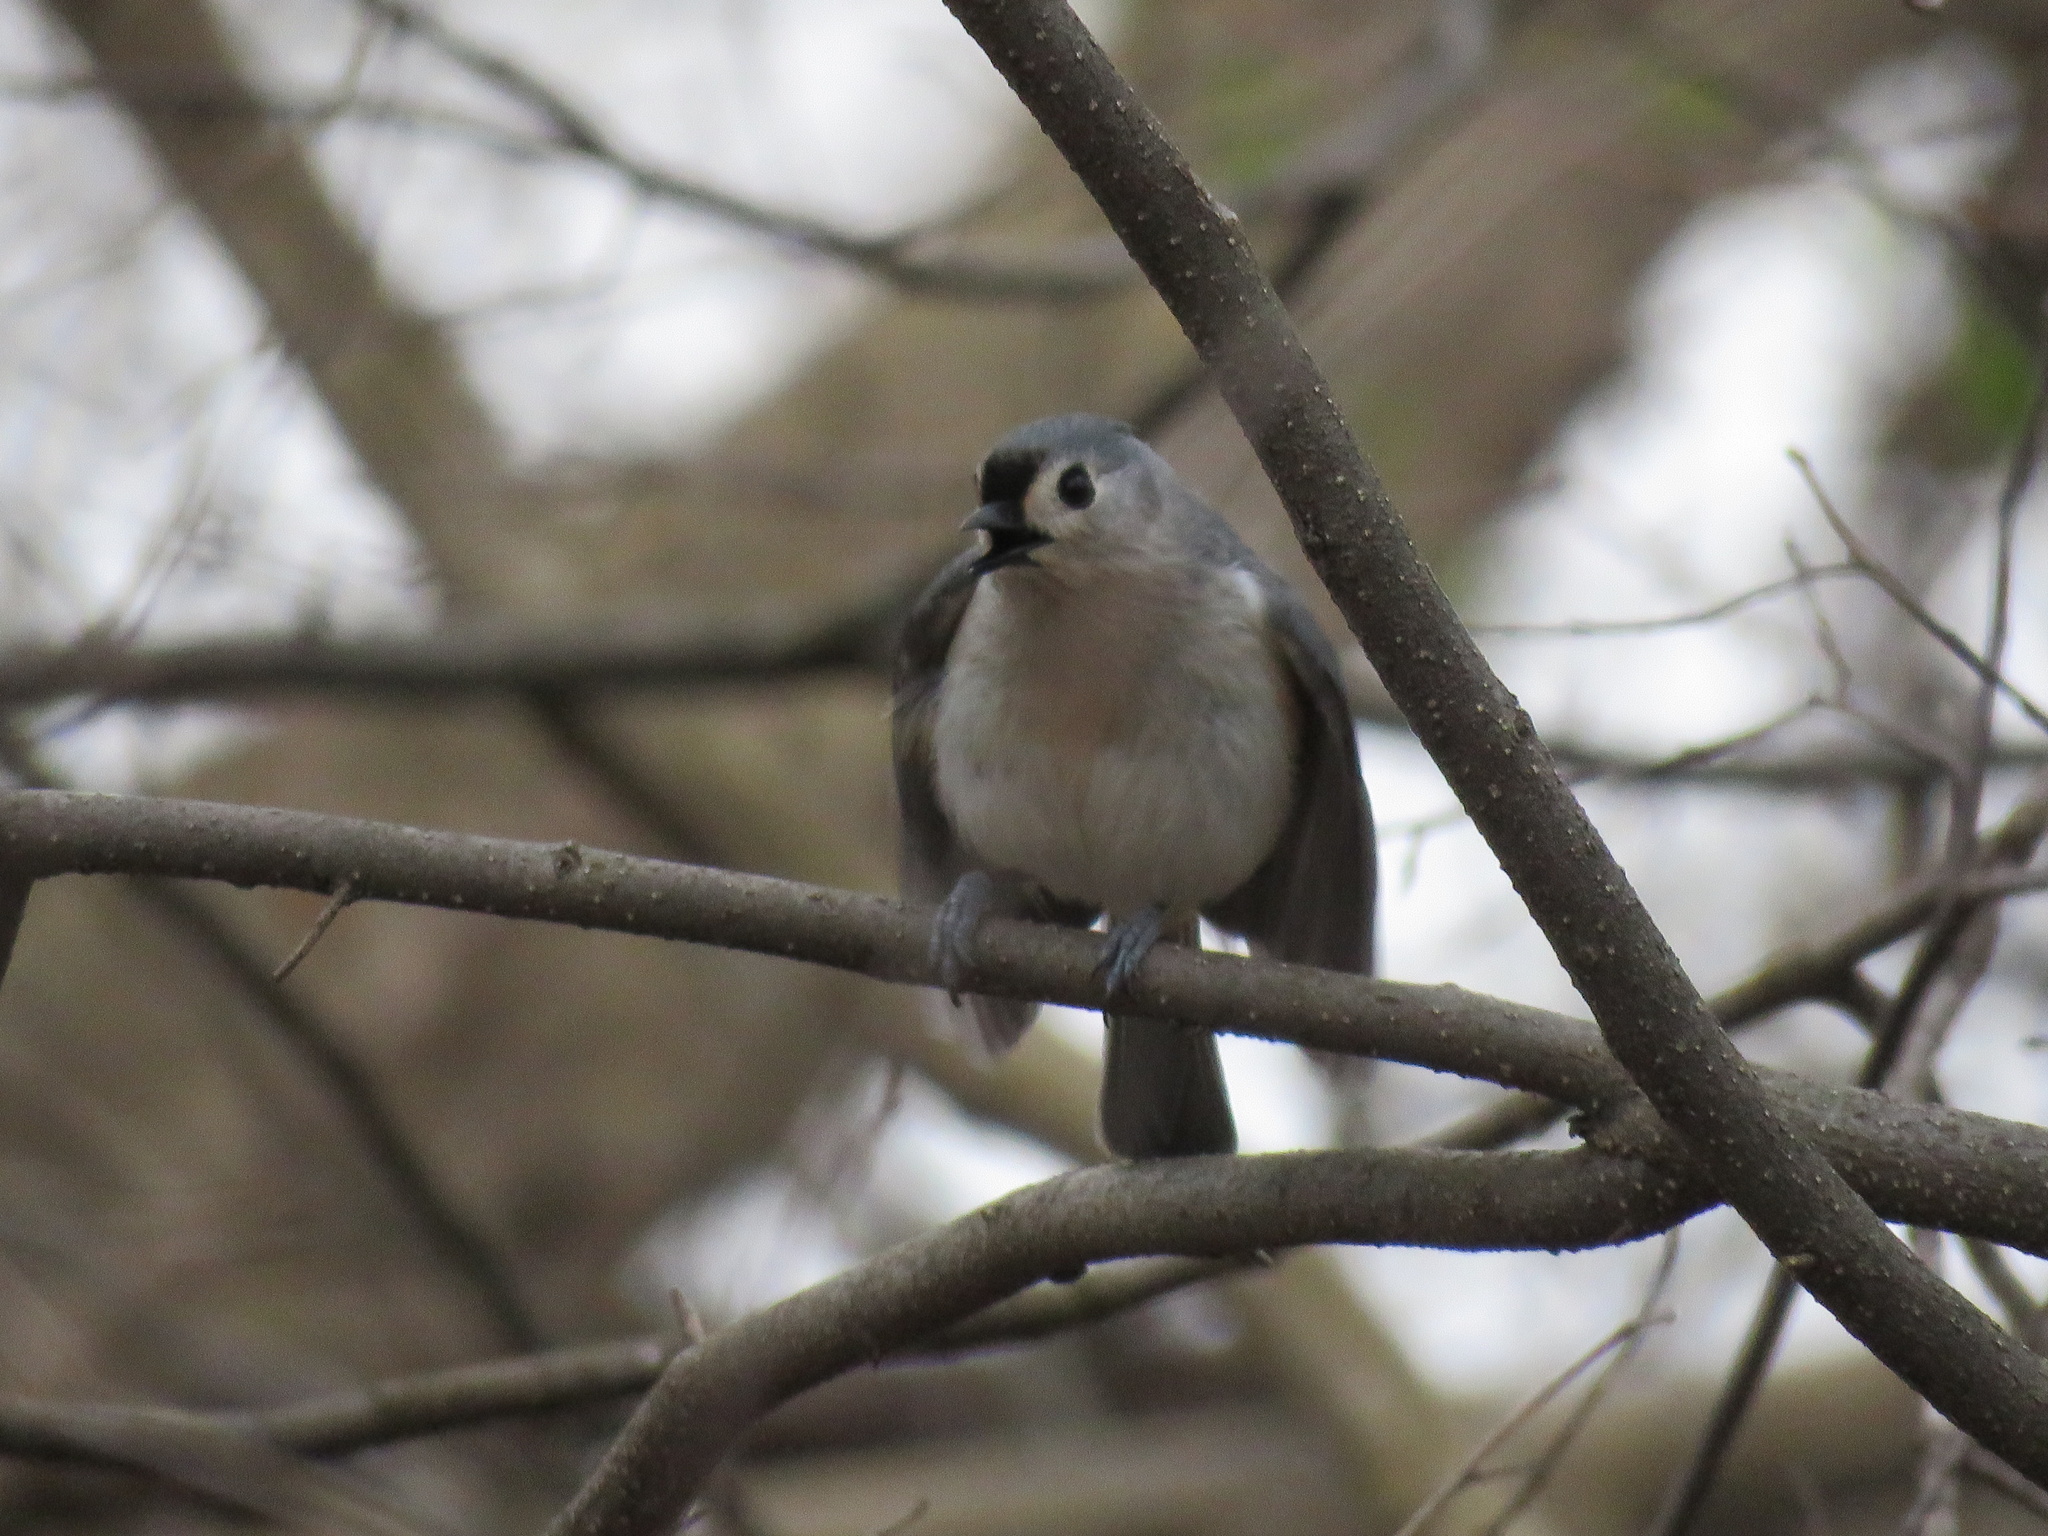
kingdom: Animalia
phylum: Chordata
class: Aves
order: Passeriformes
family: Paridae
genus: Baeolophus
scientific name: Baeolophus bicolor
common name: Tufted titmouse
